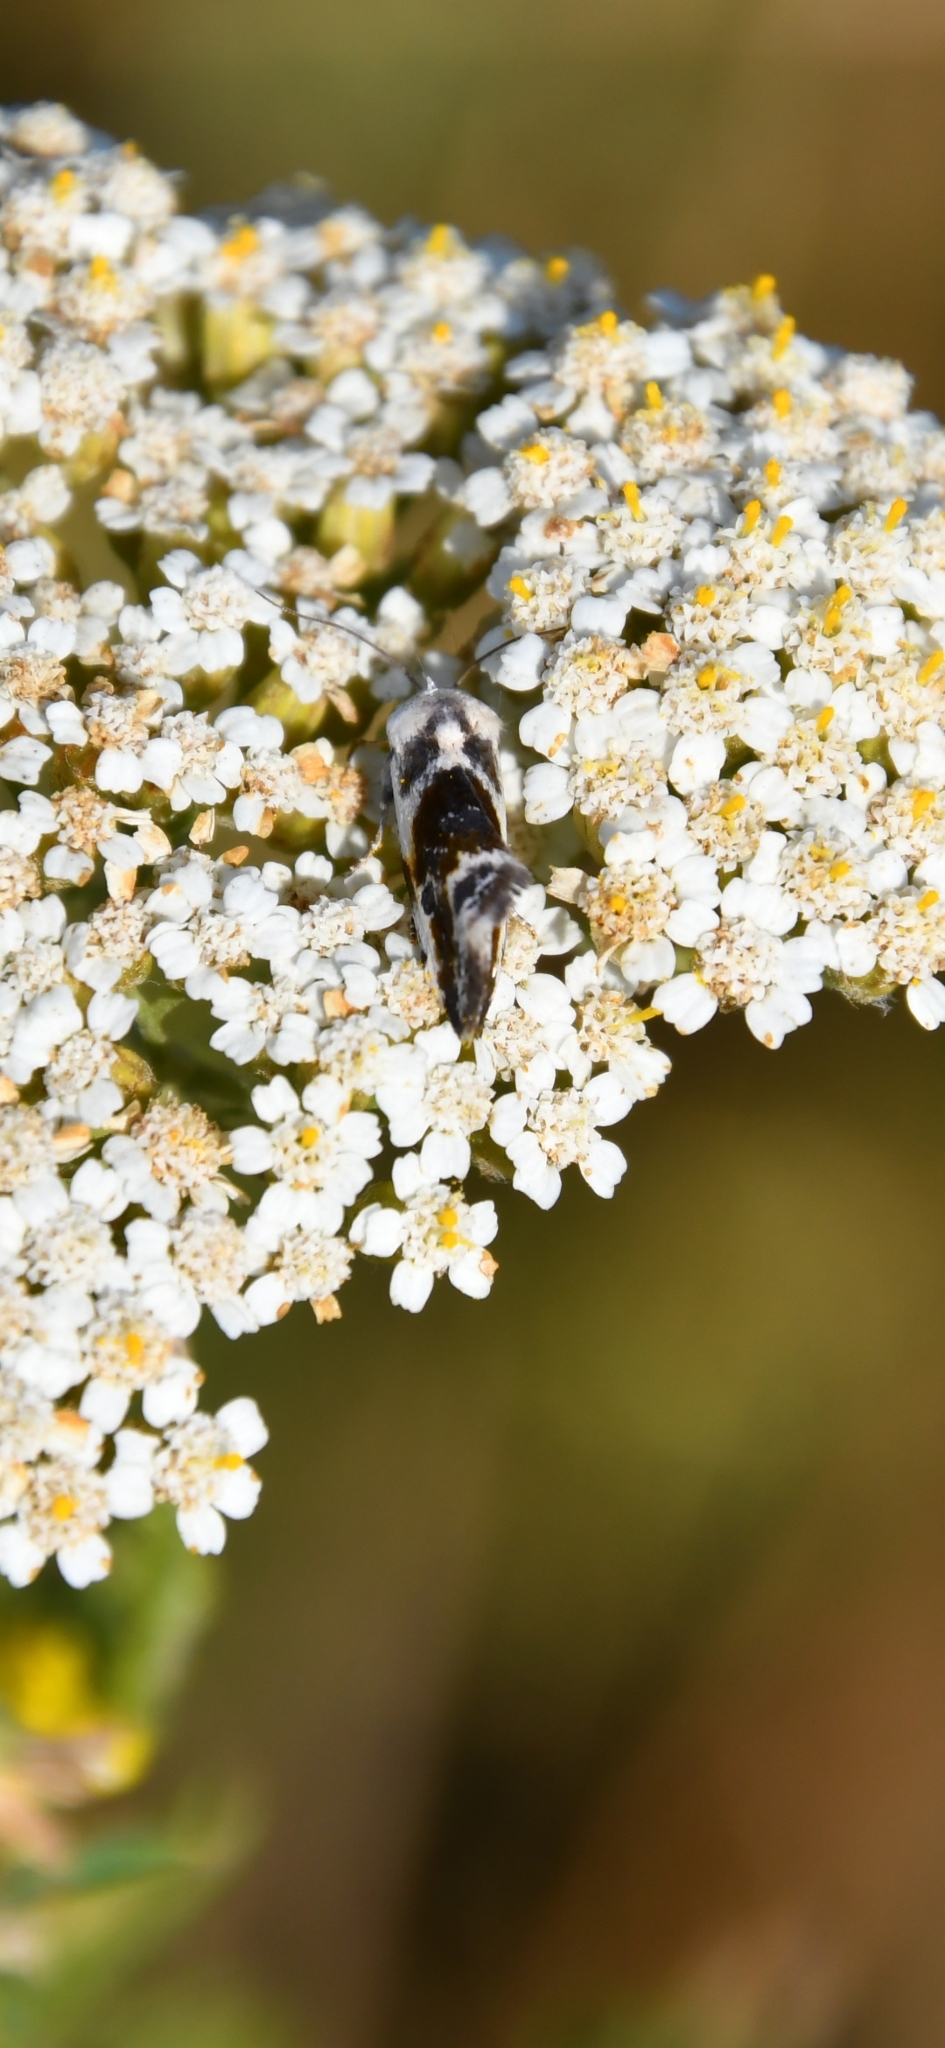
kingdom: Animalia
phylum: Arthropoda
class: Insecta
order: Lepidoptera
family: Noctuidae
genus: Acontia
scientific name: Acontia candefacta
